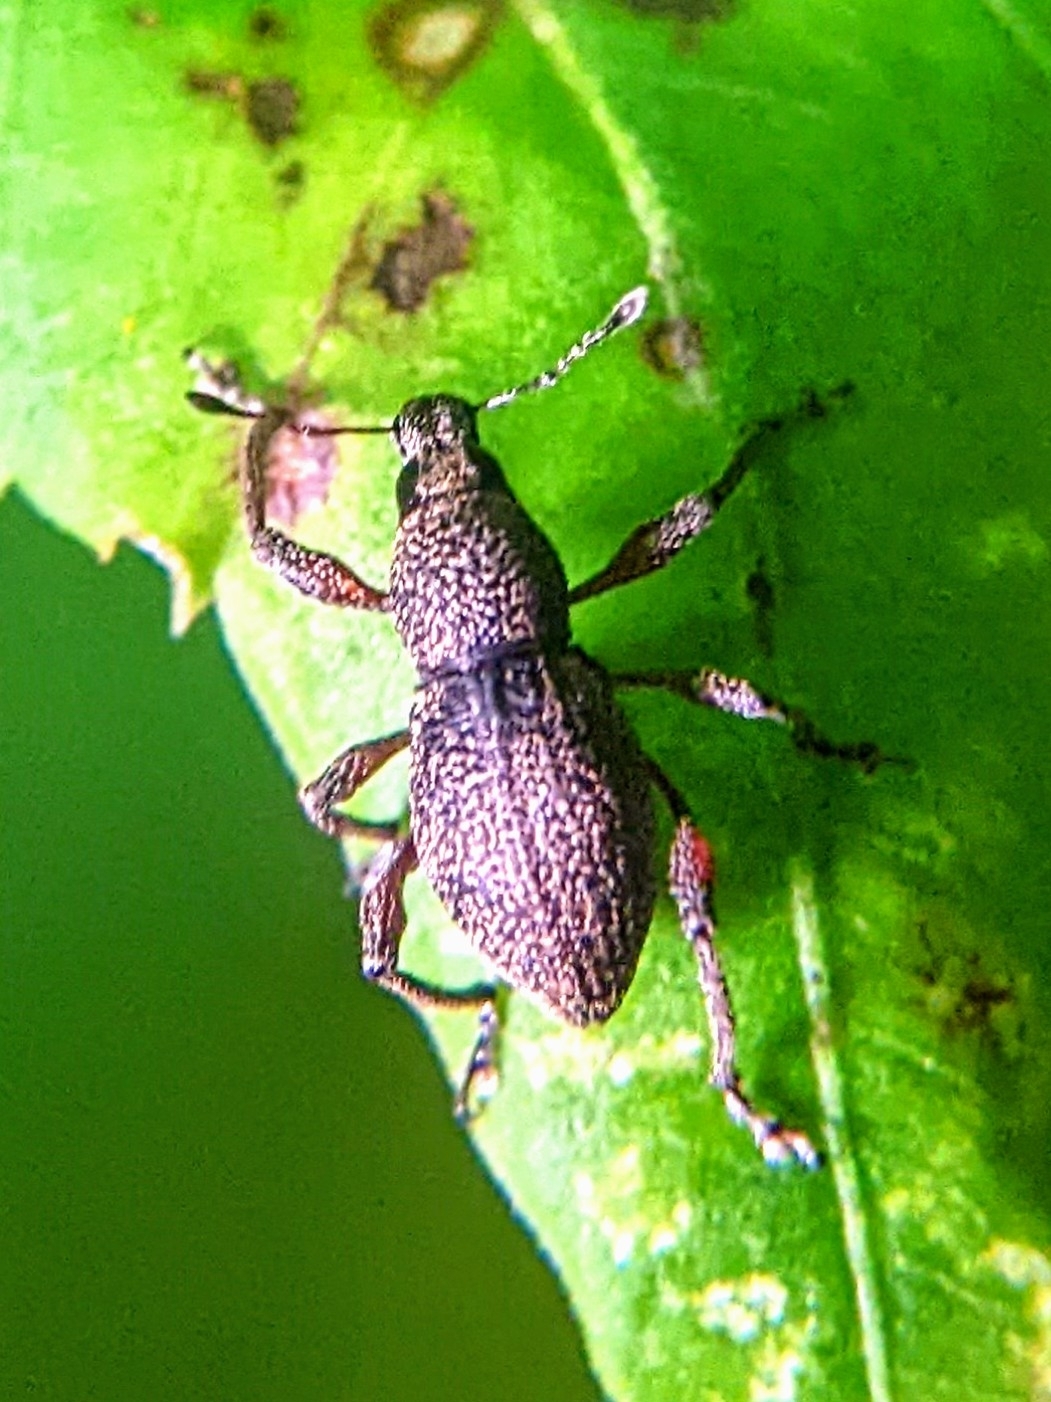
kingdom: Animalia
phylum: Arthropoda
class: Insecta
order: Coleoptera
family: Curculionidae
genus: Metapocyrtus
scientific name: Metapocyrtus adspersus
